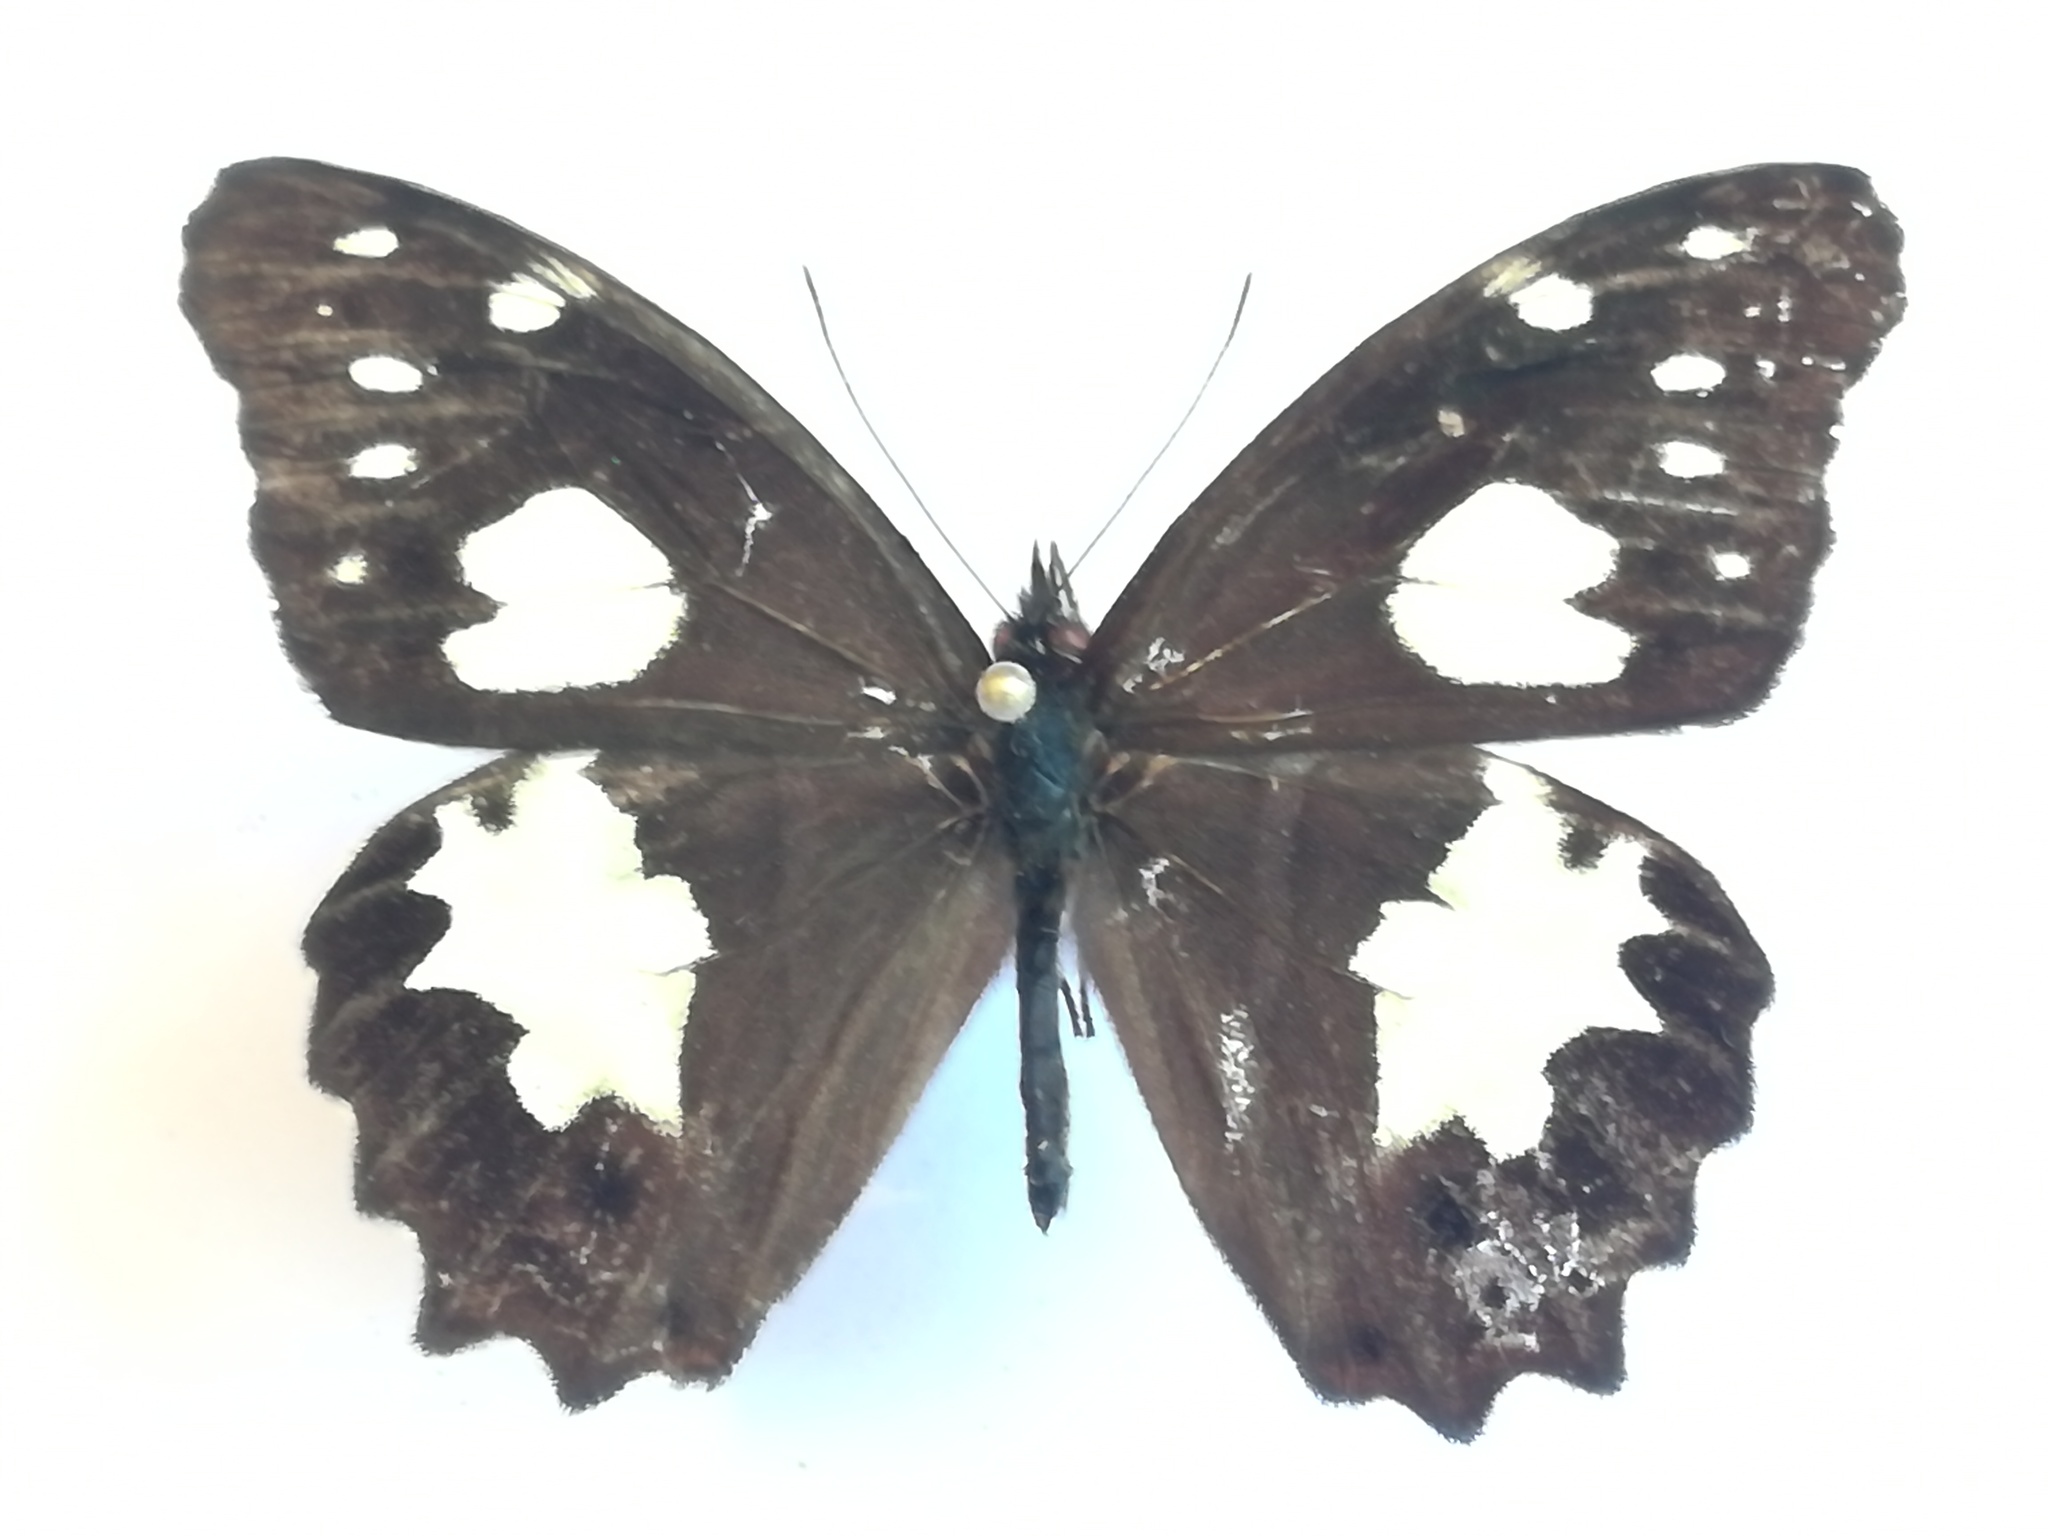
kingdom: Animalia
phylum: Arthropoda
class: Insecta
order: Lepidoptera
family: Nymphalidae
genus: Oxeoschistus
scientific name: Oxeoschistus tauropolis
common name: Starred oxeo
